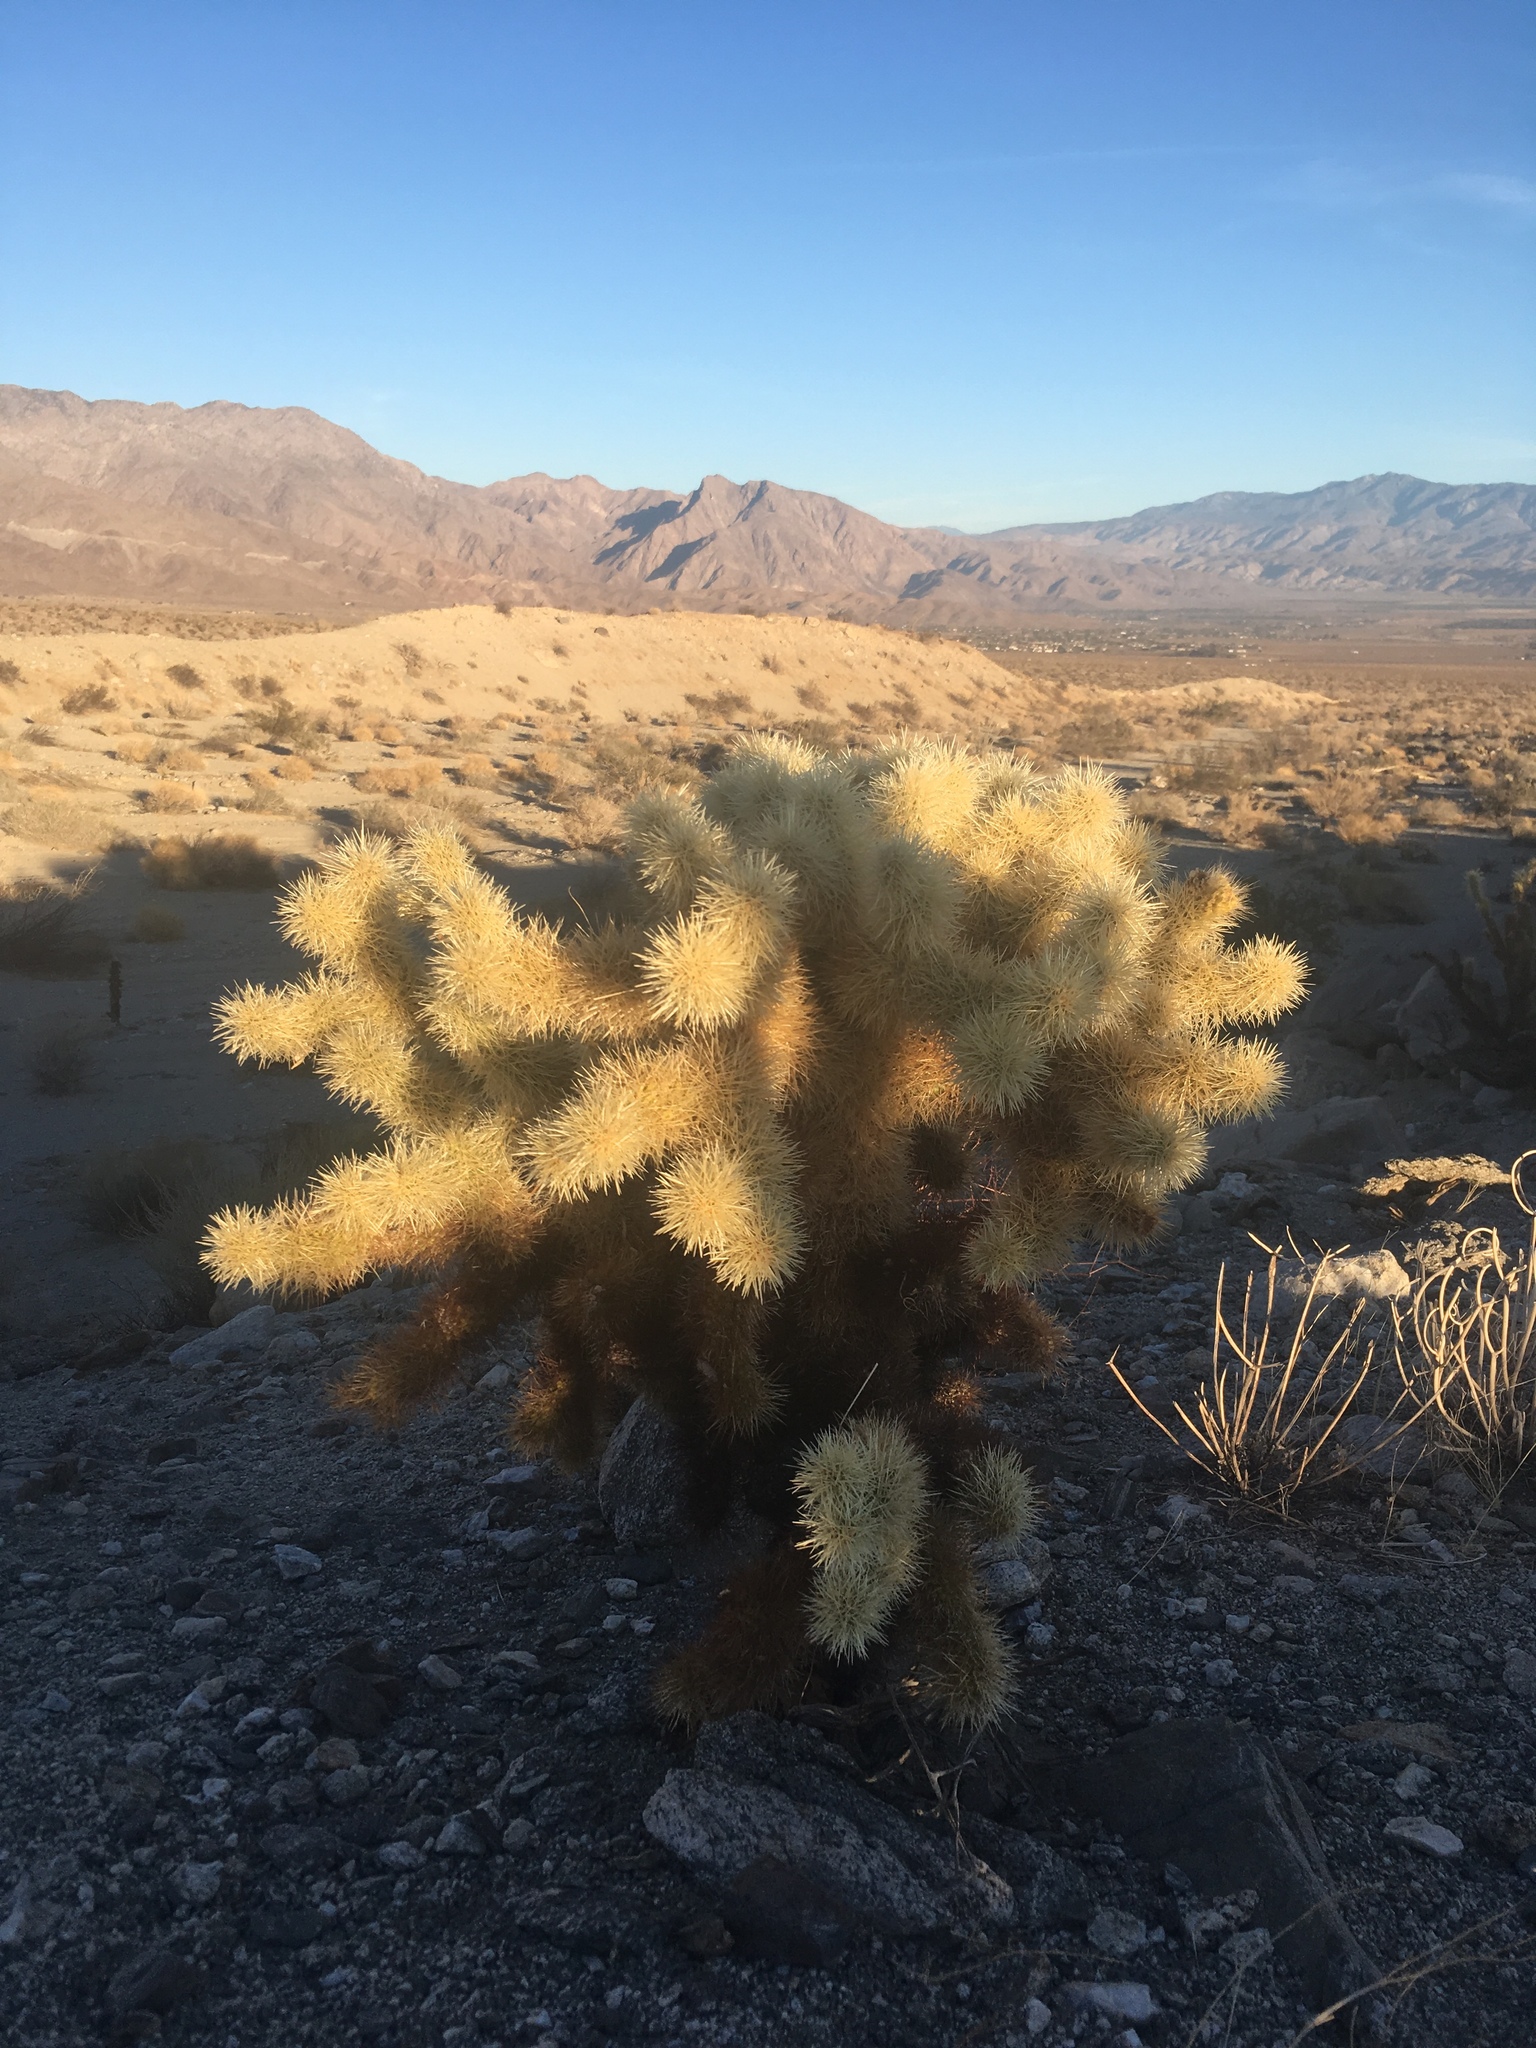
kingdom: Plantae
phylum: Tracheophyta
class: Magnoliopsida
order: Caryophyllales
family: Cactaceae
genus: Cylindropuntia
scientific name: Cylindropuntia fosbergii
